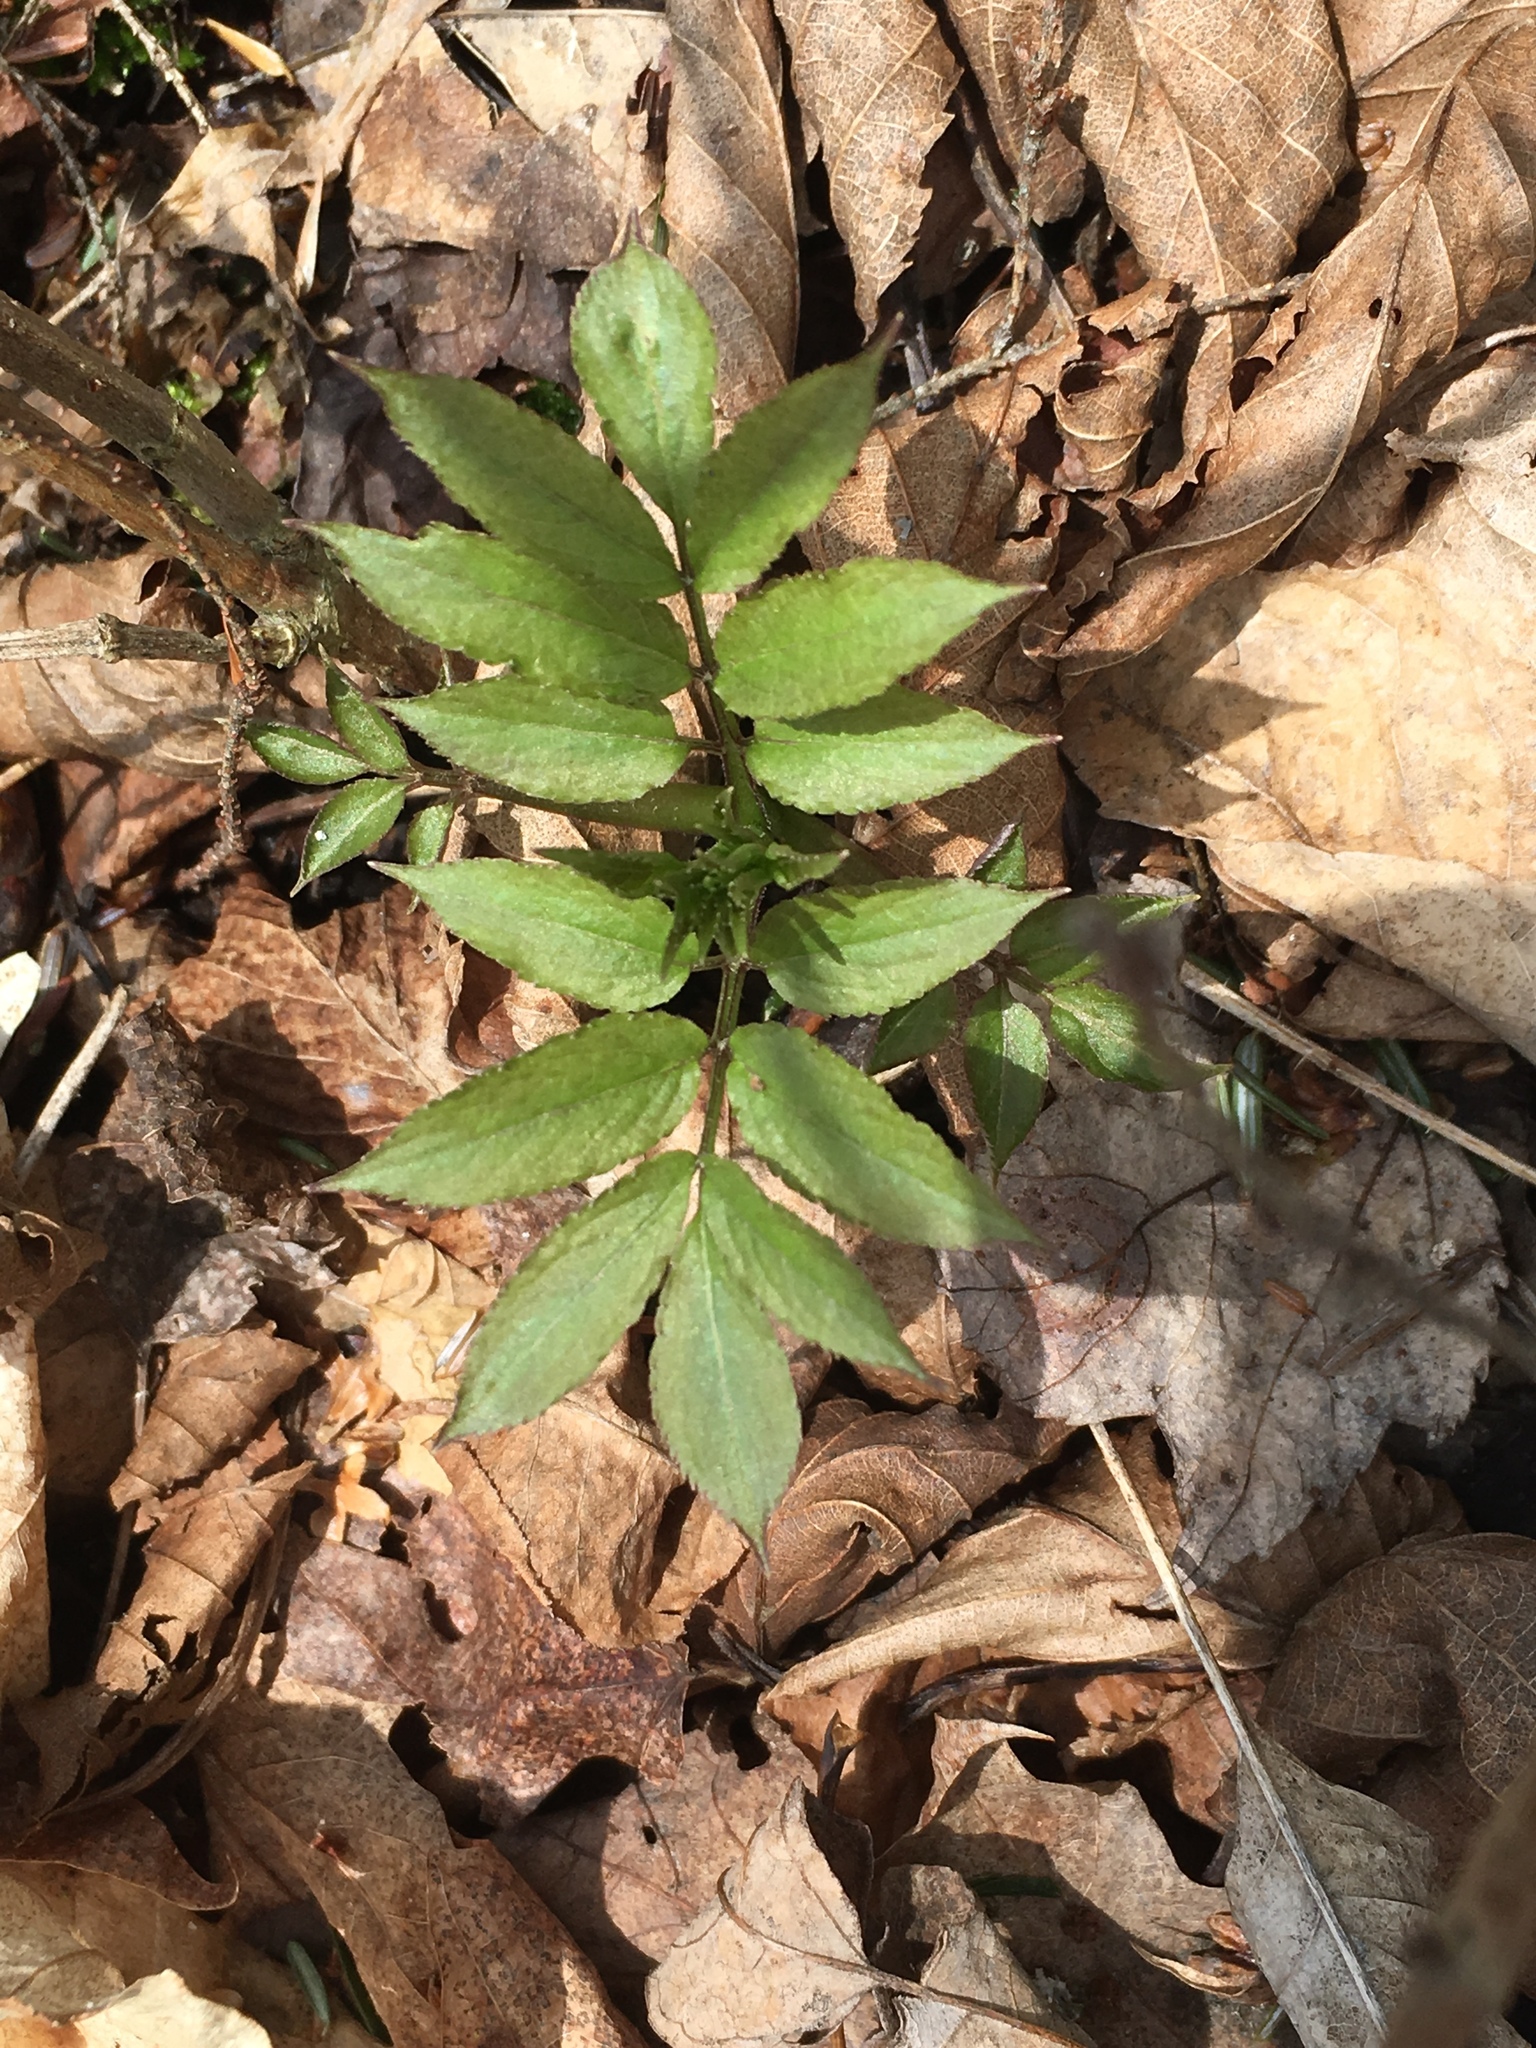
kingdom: Plantae
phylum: Tracheophyta
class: Magnoliopsida
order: Dipsacales
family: Viburnaceae
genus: Sambucus
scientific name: Sambucus
